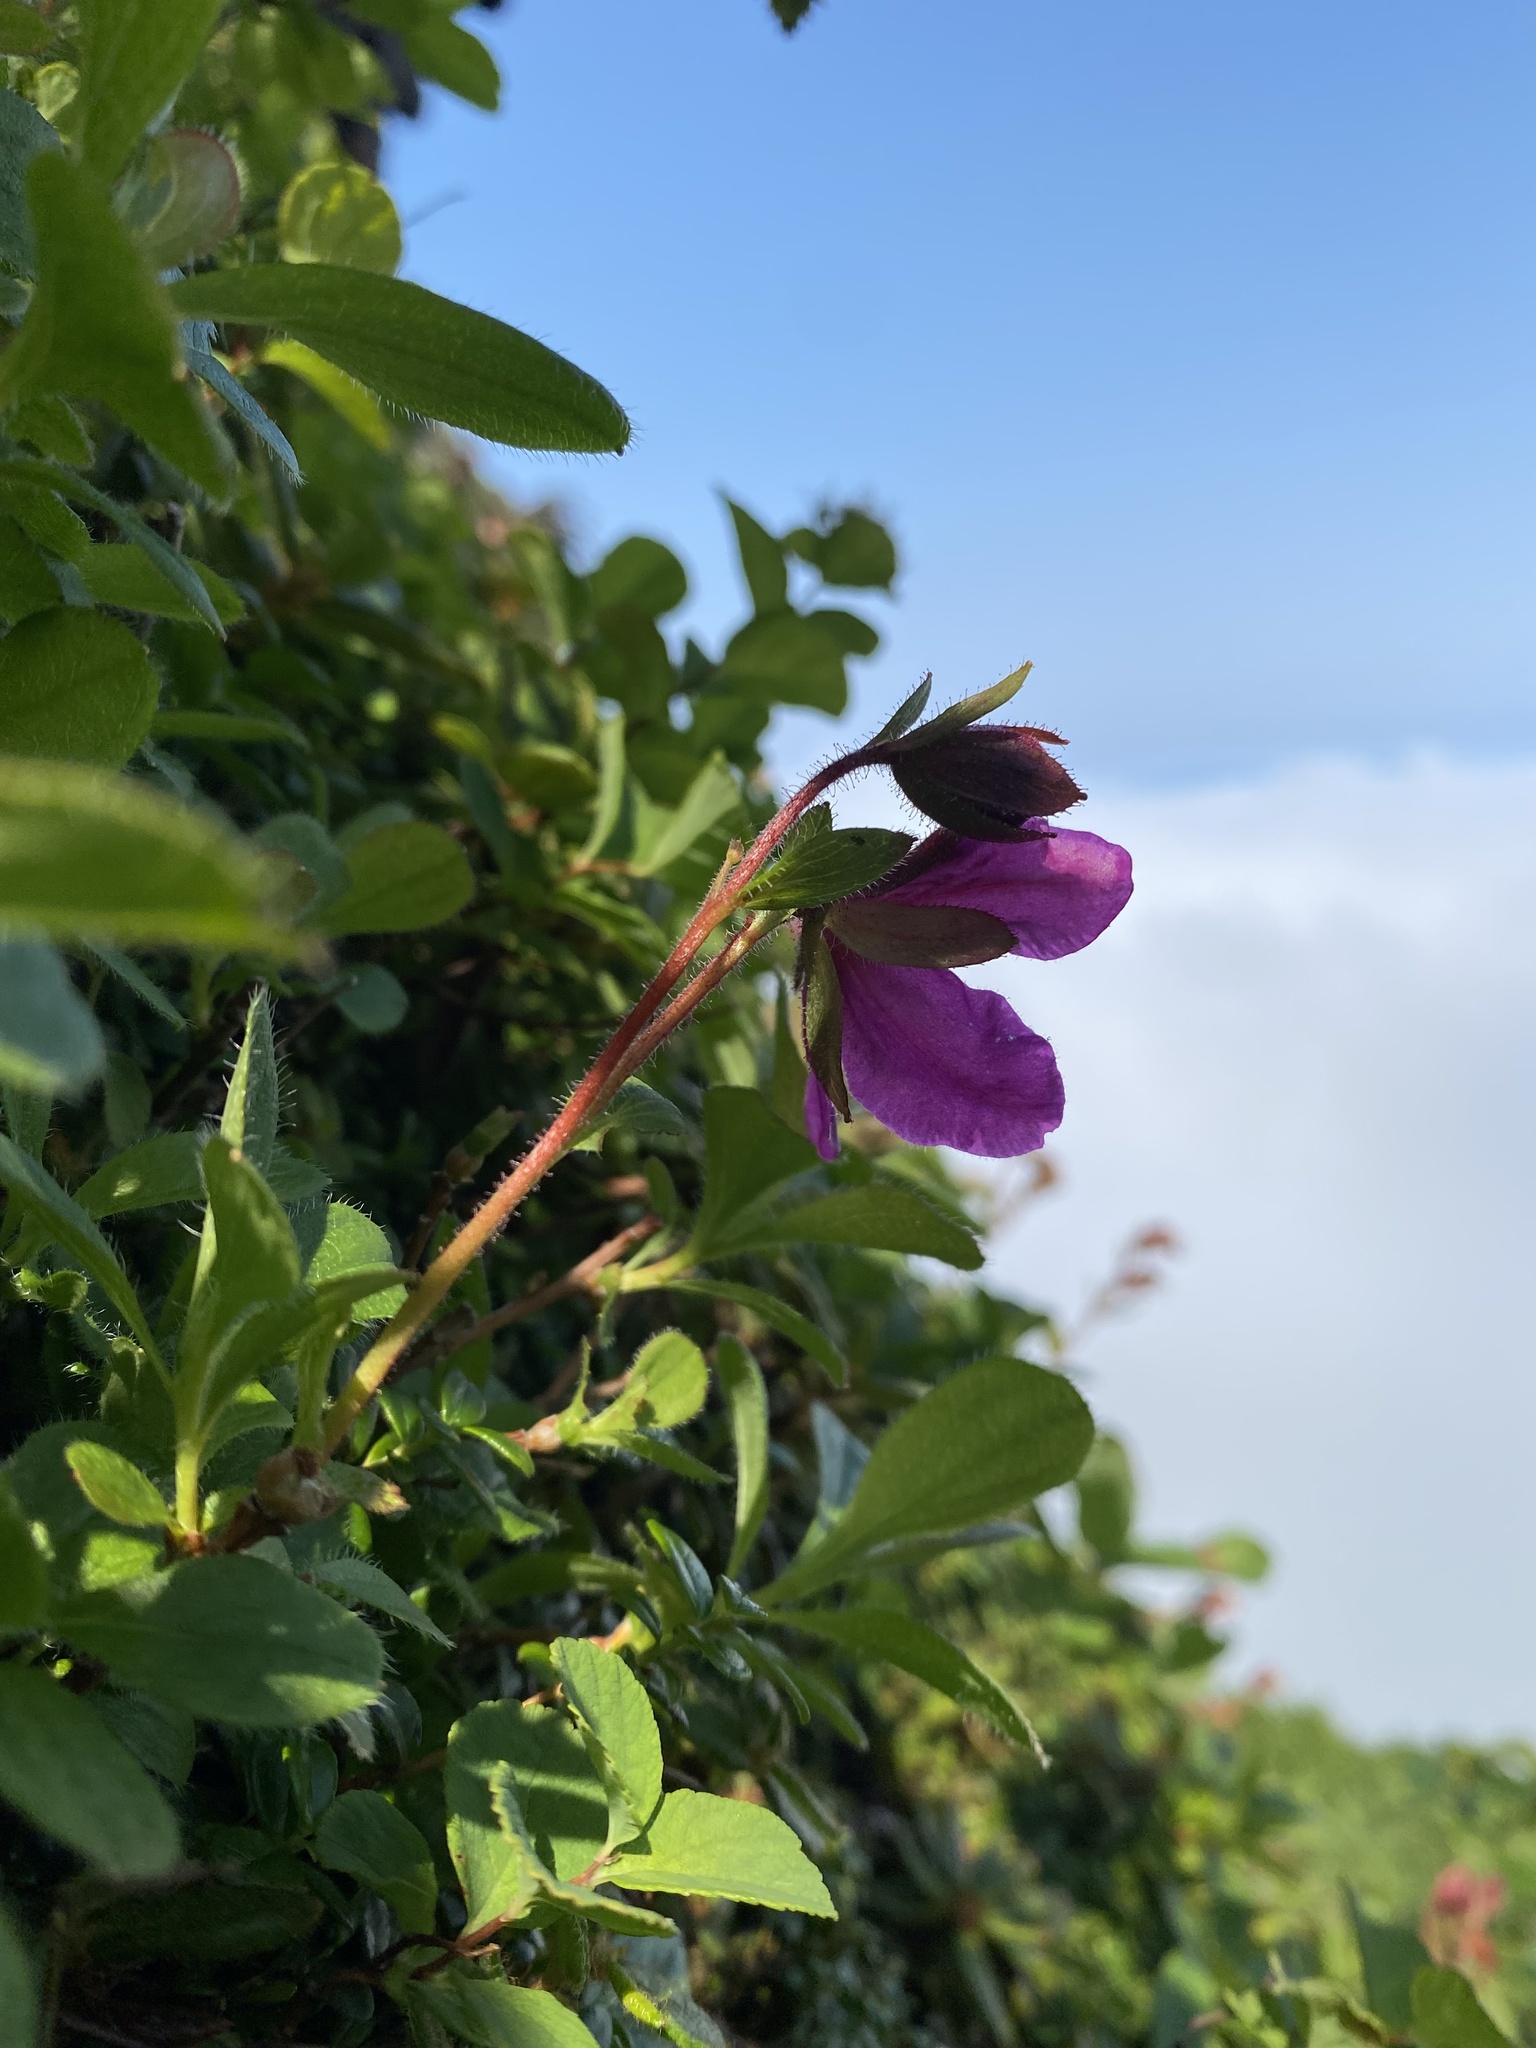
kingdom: Plantae
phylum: Tracheophyta
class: Magnoliopsida
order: Ericales
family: Ericaceae
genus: Rhododendron
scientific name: Rhododendron camtschaticum
